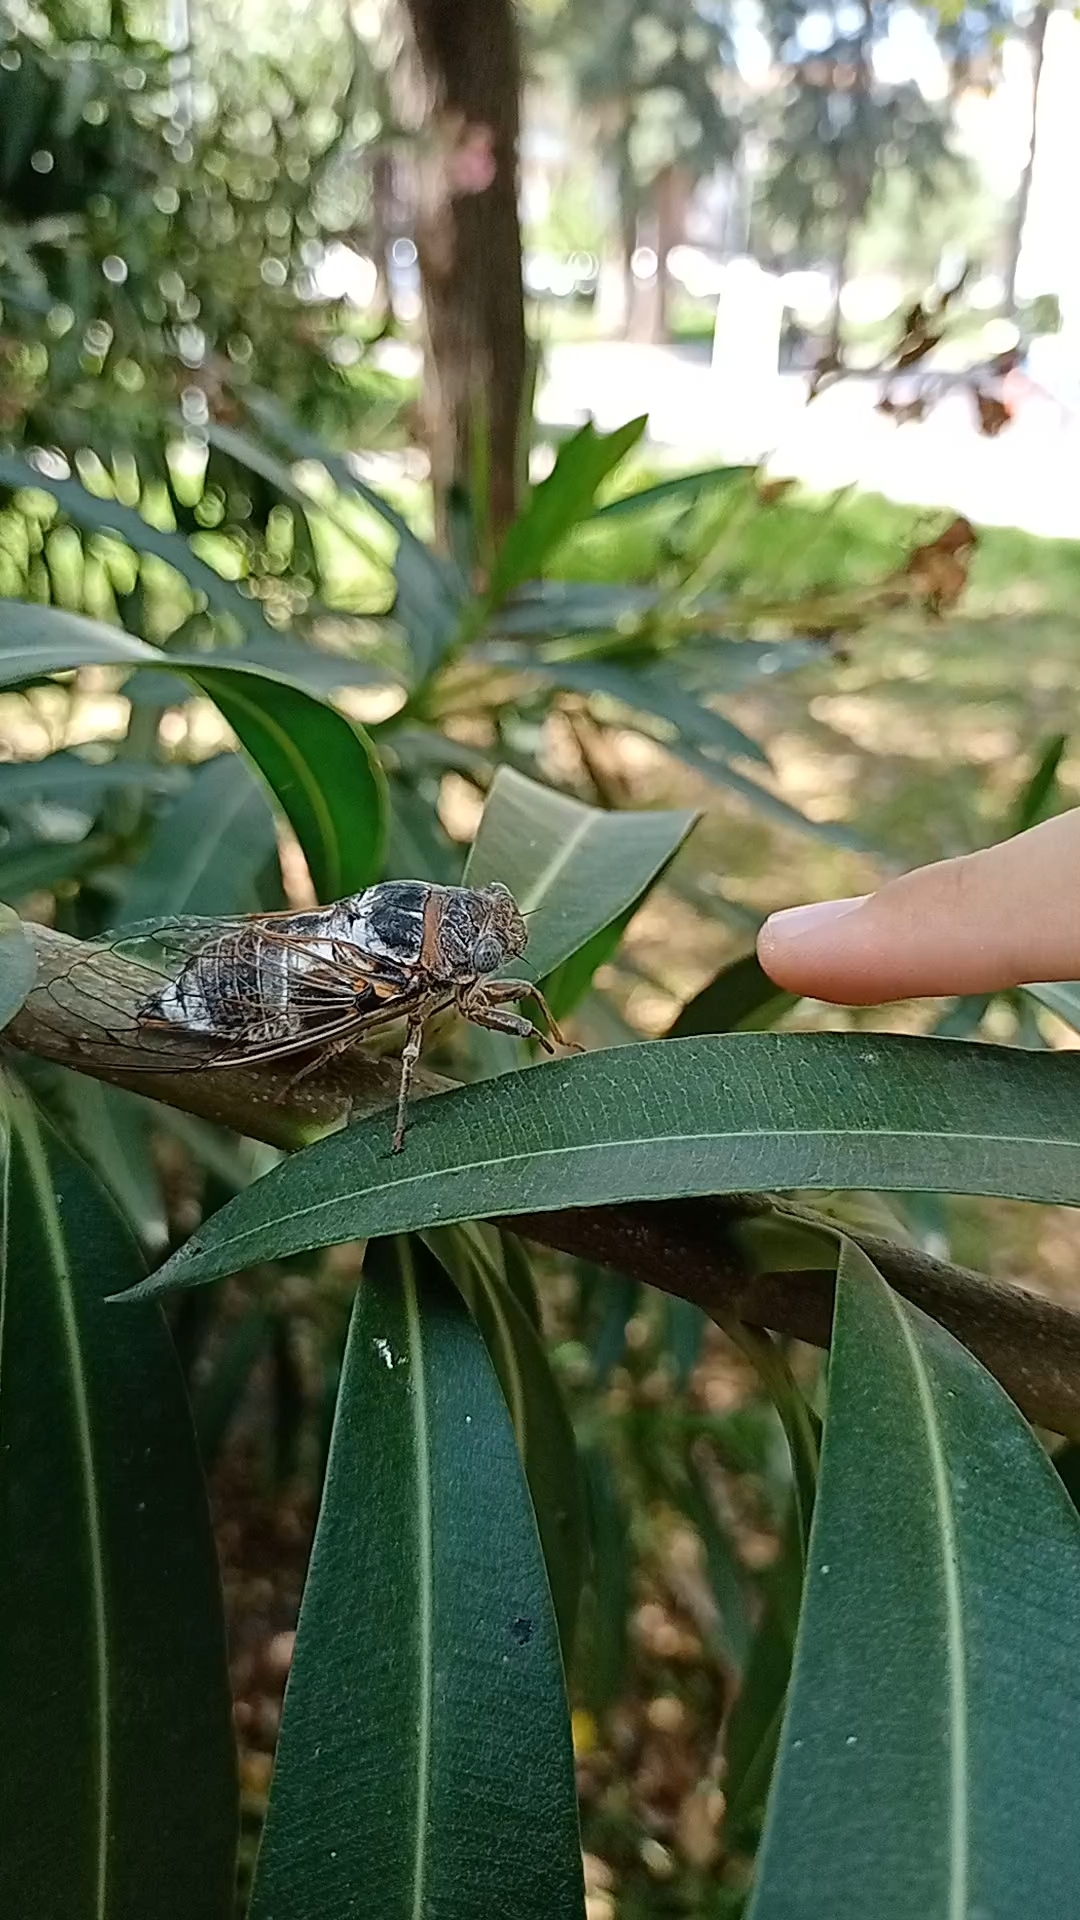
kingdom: Animalia
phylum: Arthropoda
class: Insecta
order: Hemiptera
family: Cicadidae
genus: Lyristes
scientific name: Lyristes gemellus
